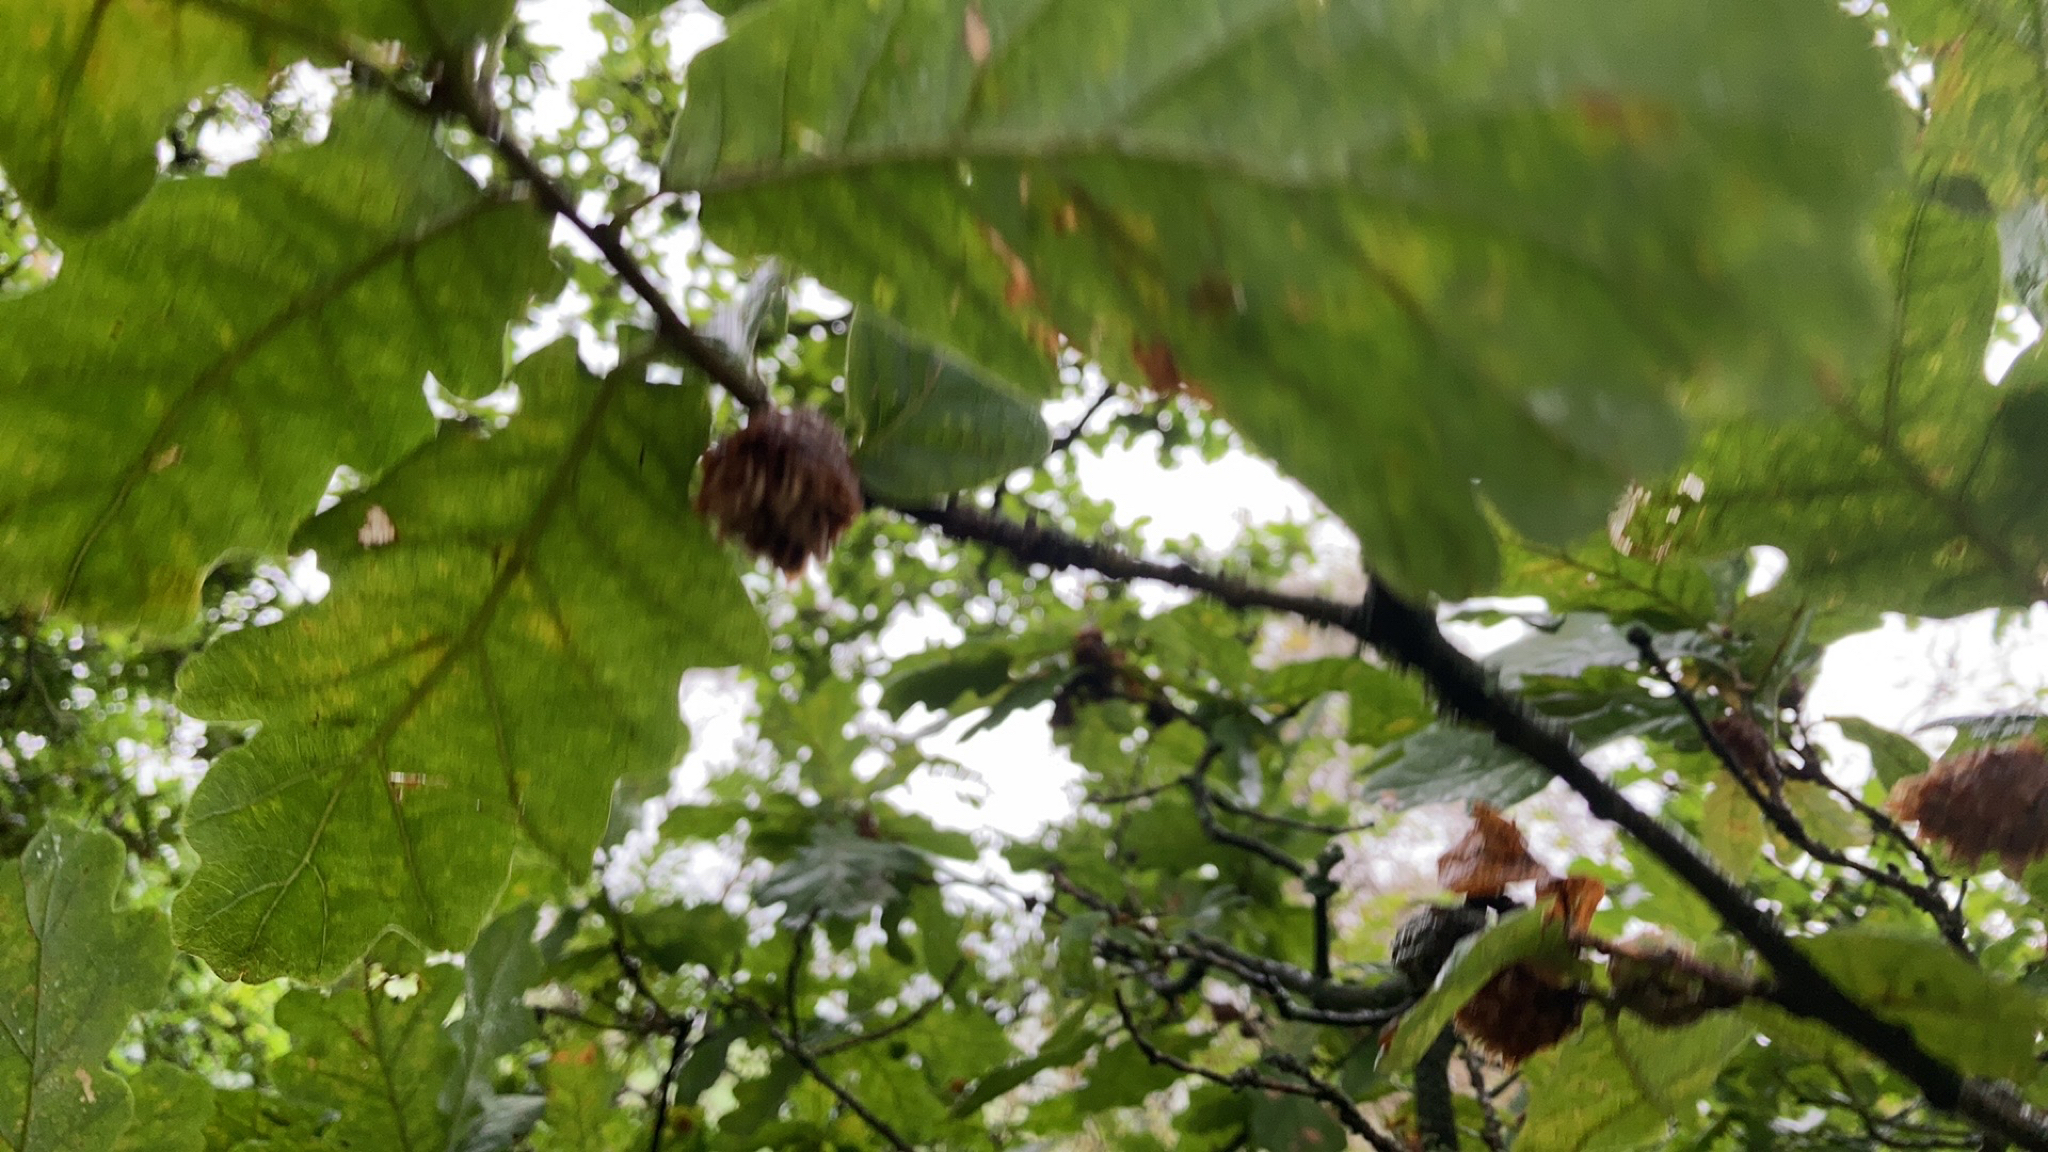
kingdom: Animalia
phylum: Arthropoda
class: Insecta
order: Hymenoptera
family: Cynipidae
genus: Andricus
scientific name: Andricus foecundatrix
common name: Artichoke gall
